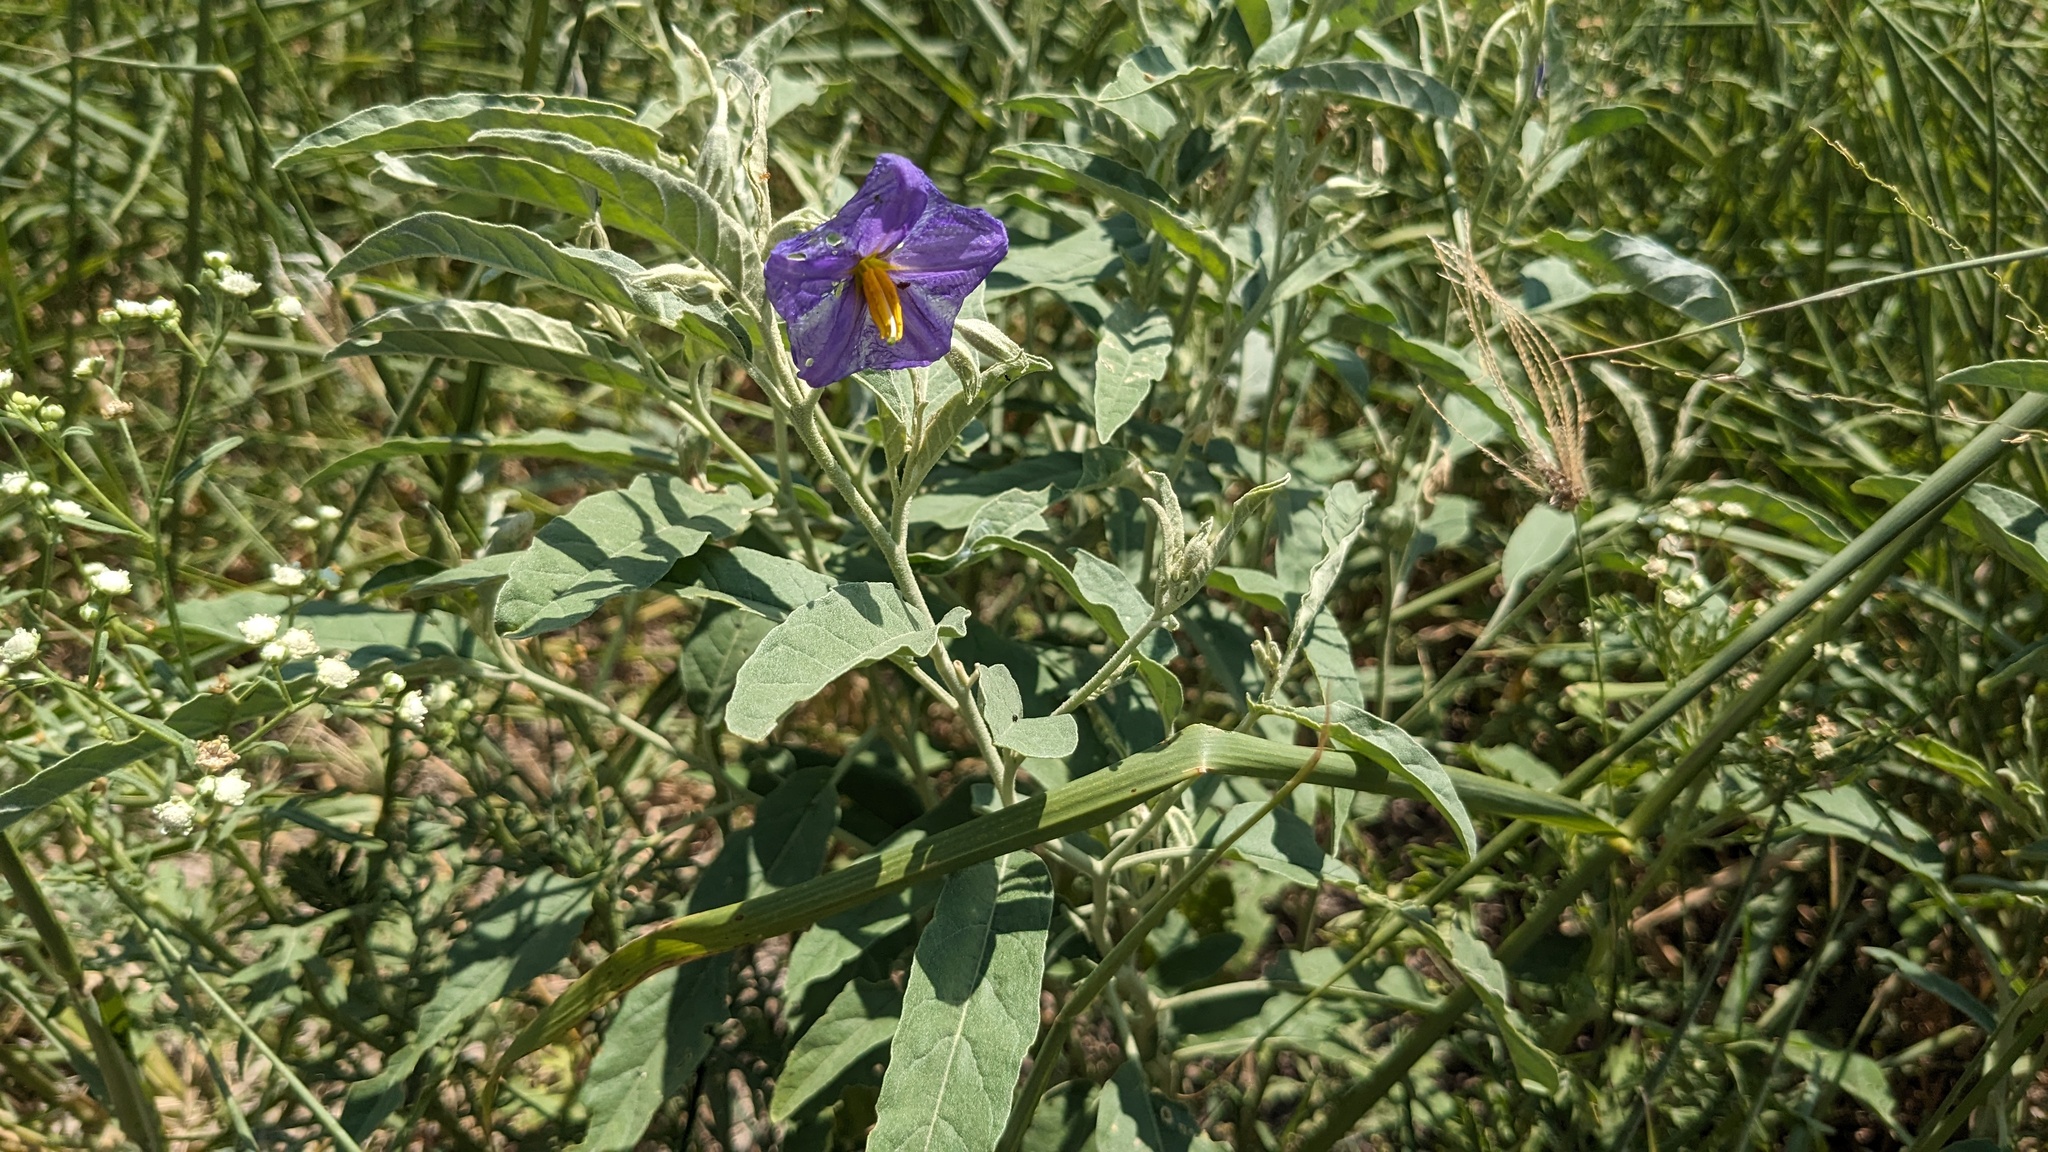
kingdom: Plantae
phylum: Tracheophyta
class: Magnoliopsida
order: Solanales
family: Solanaceae
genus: Solanum
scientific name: Solanum elaeagnifolium
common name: Silverleaf nightshade
